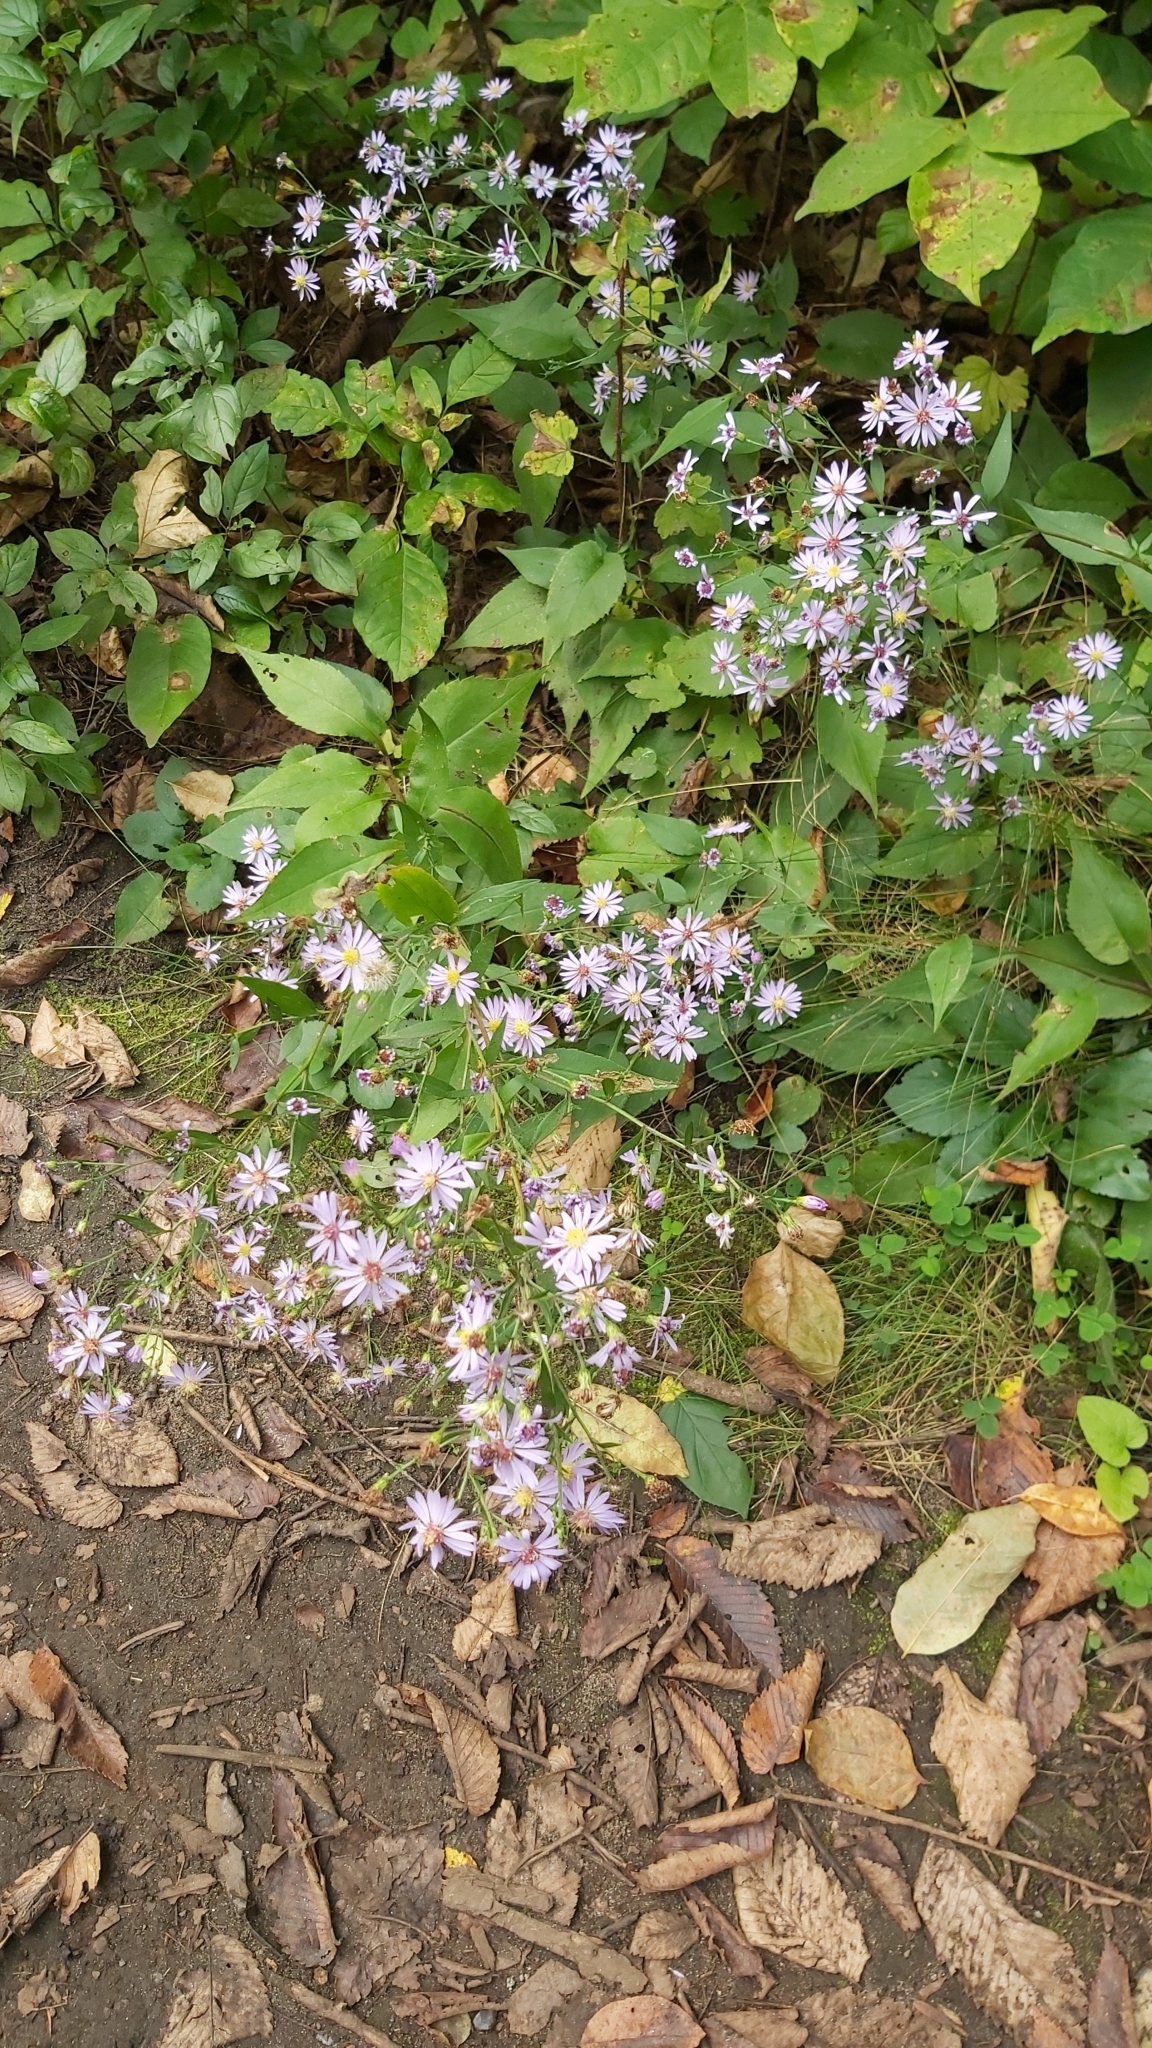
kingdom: Plantae
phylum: Tracheophyta
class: Magnoliopsida
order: Asterales
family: Asteraceae
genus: Symphyotrichum
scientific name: Symphyotrichum ciliolatum
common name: Fringed blue aster
